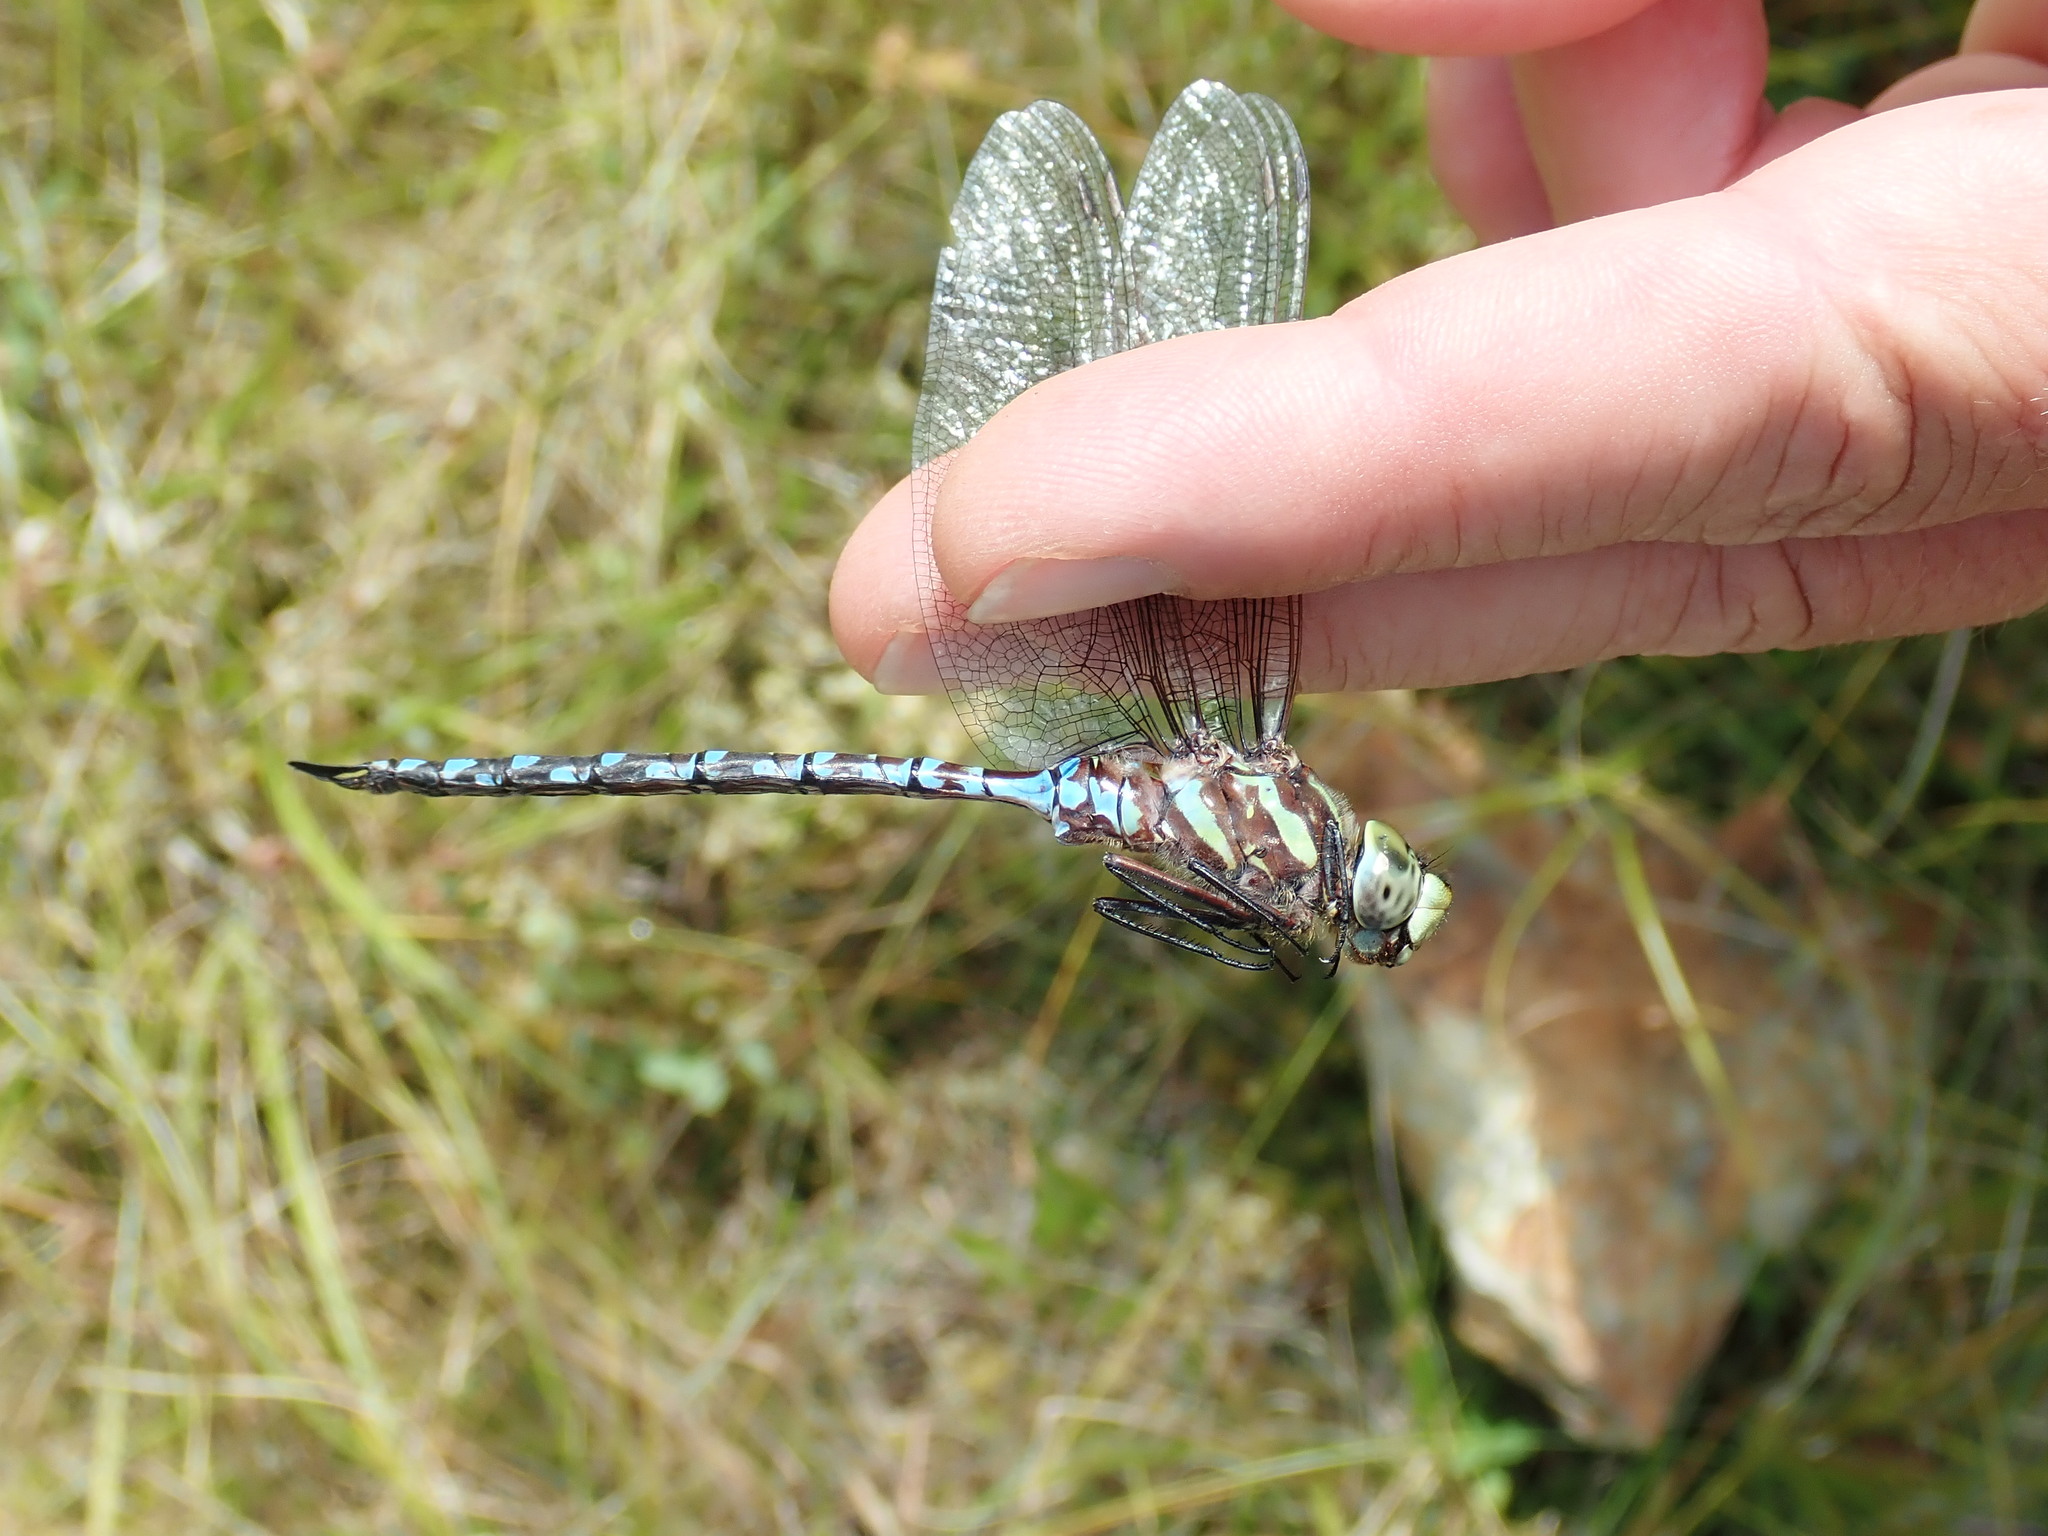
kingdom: Animalia
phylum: Arthropoda
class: Insecta
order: Odonata
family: Aeshnidae
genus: Aeshna
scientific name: Aeshna canadensis
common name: Canada darner
